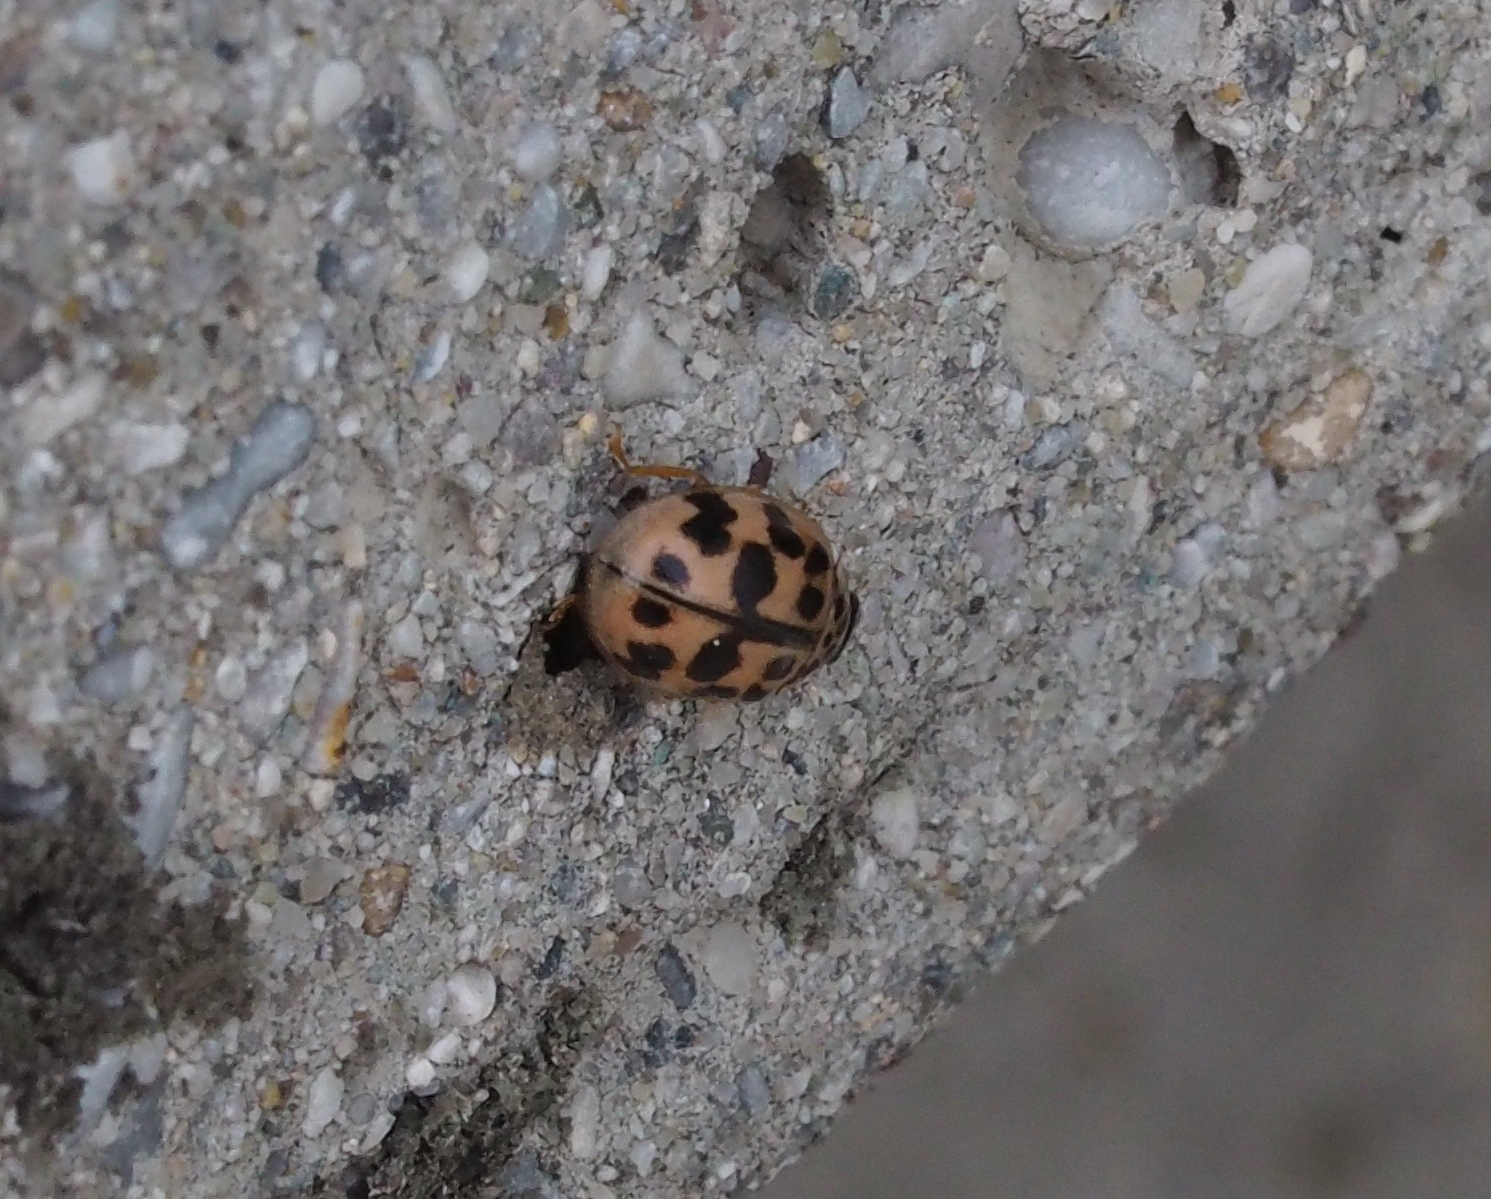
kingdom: Animalia
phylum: Arthropoda
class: Insecta
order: Coleoptera
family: Coccinellidae
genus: Oenopia
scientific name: Oenopia conglobata
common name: Ladybird beetle
